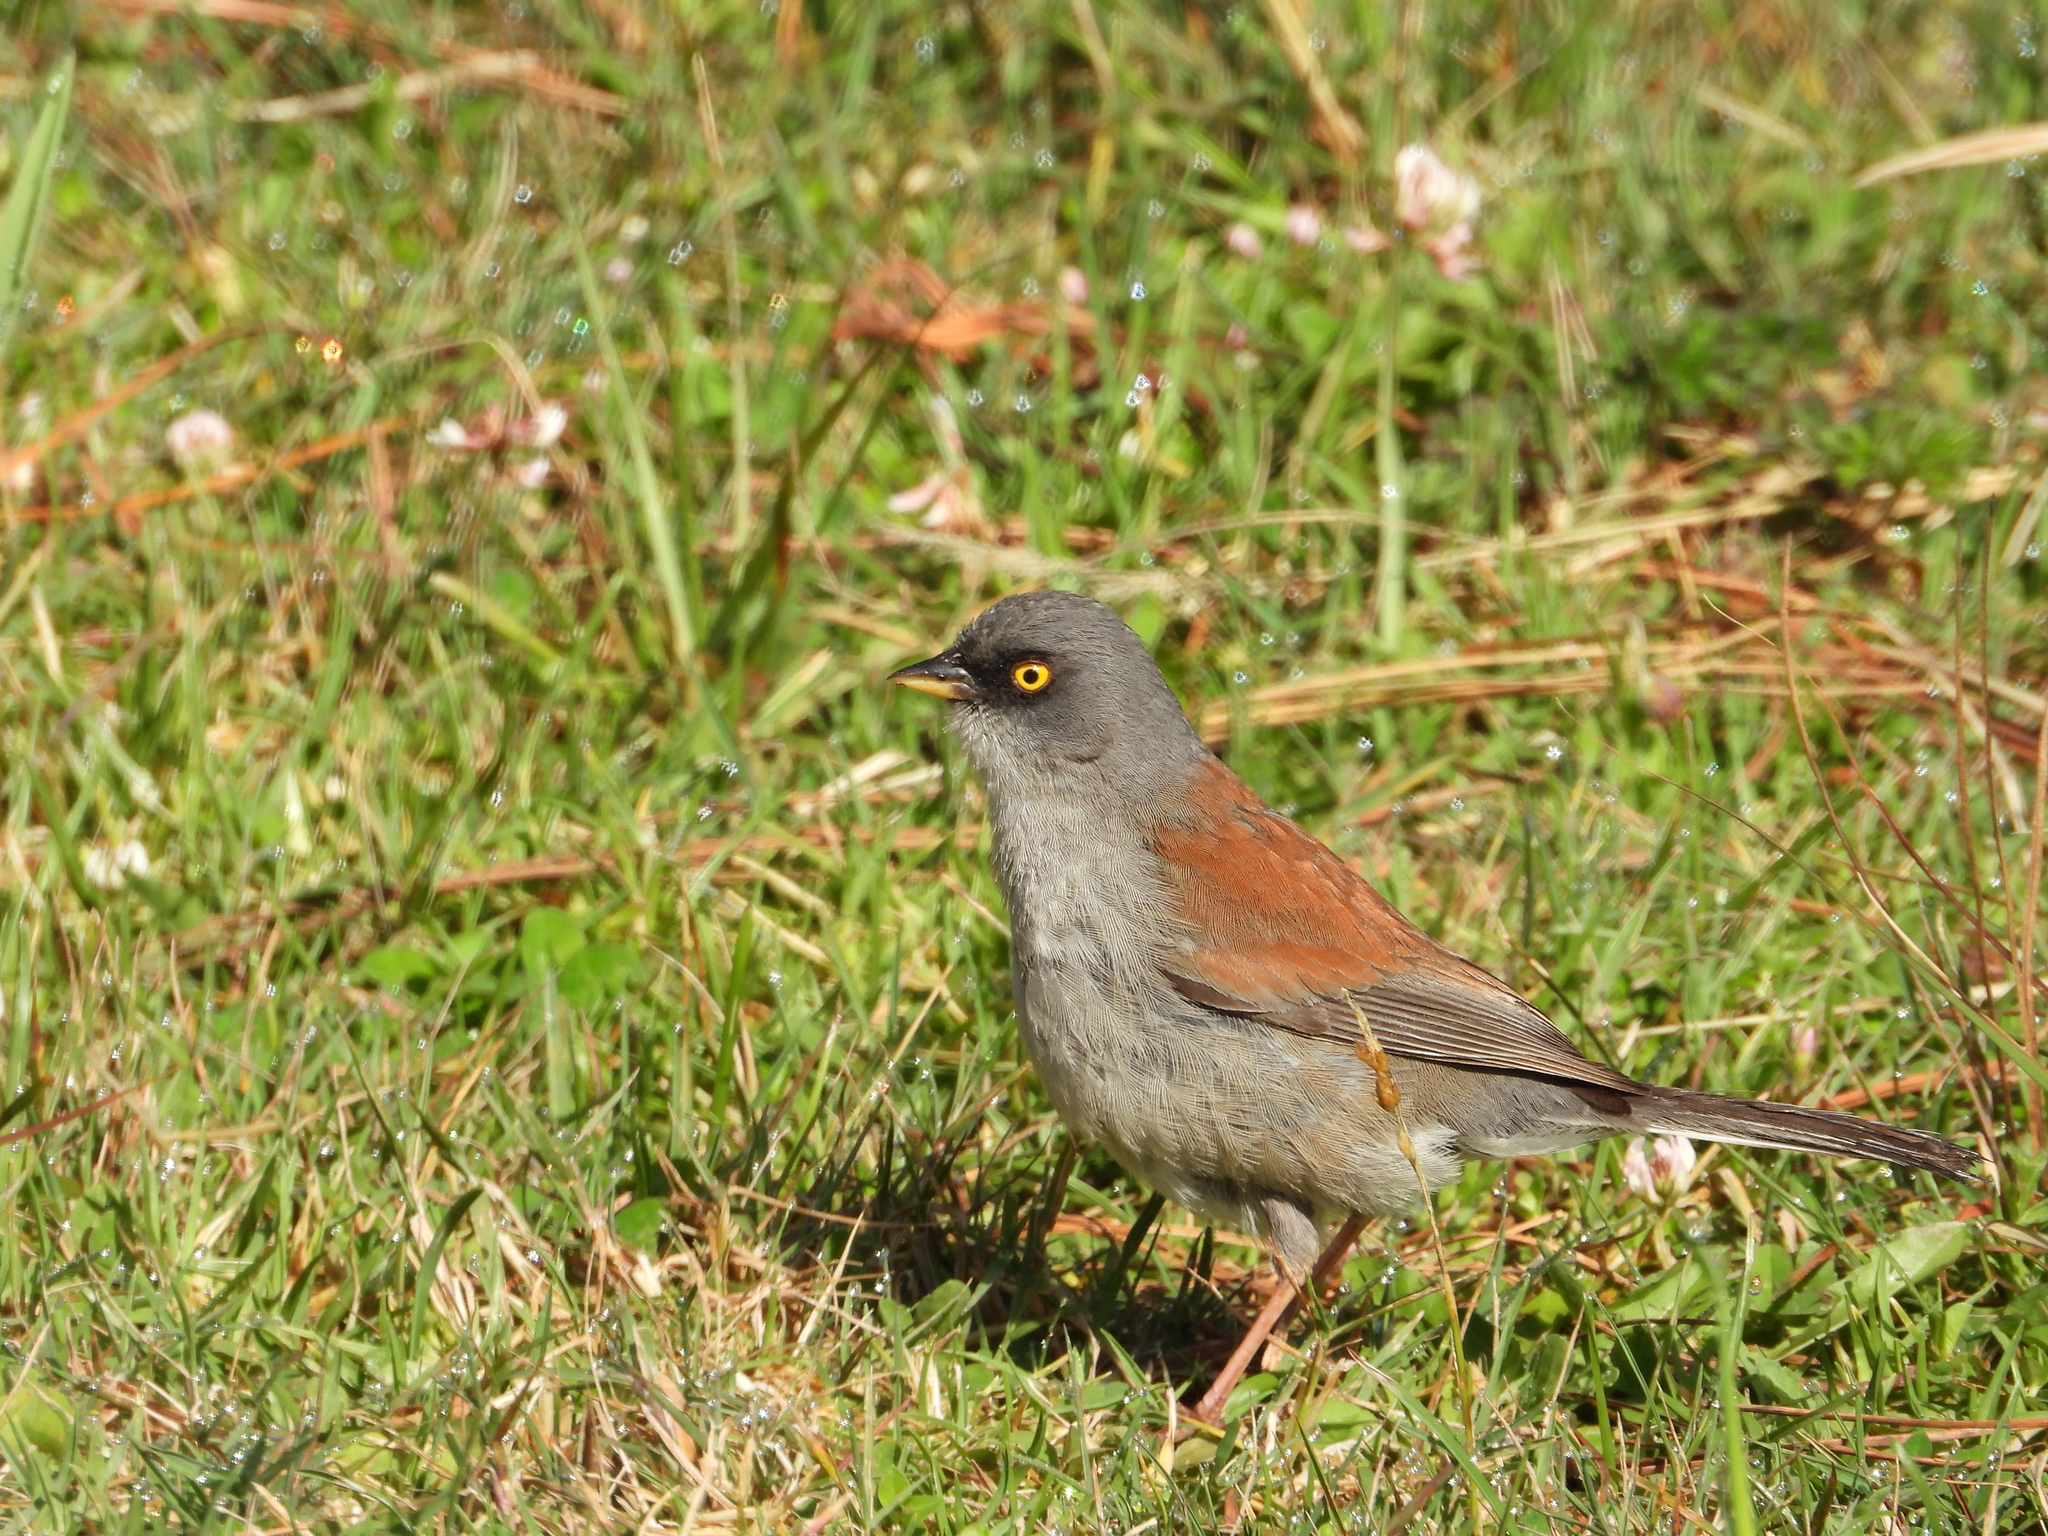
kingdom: Animalia
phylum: Chordata
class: Aves
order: Passeriformes
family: Passerellidae
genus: Junco
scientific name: Junco phaeonotus
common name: Yellow-eyed junco
